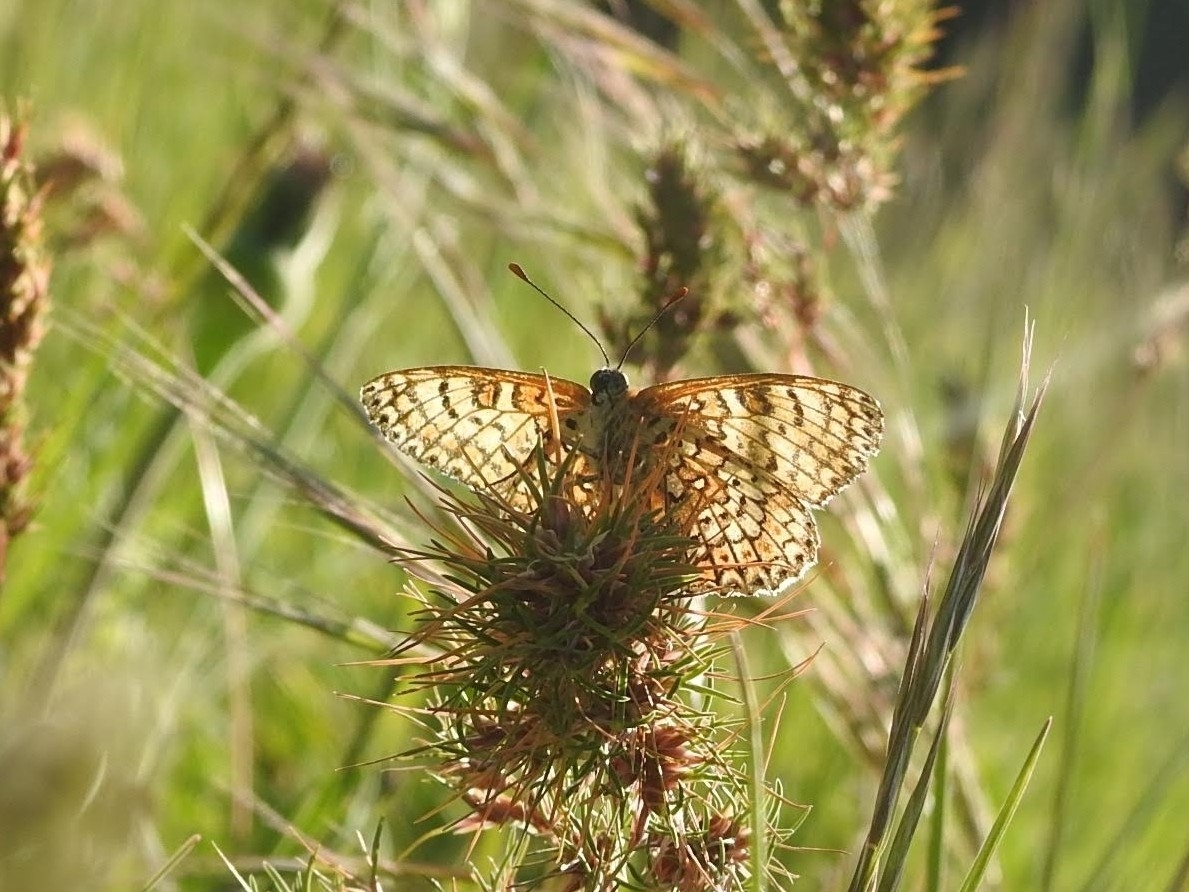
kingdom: Animalia
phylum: Arthropoda
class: Insecta
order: Lepidoptera
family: Nymphalidae
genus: Melitaea
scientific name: Melitaea cinxia
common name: Glanville fritillary
